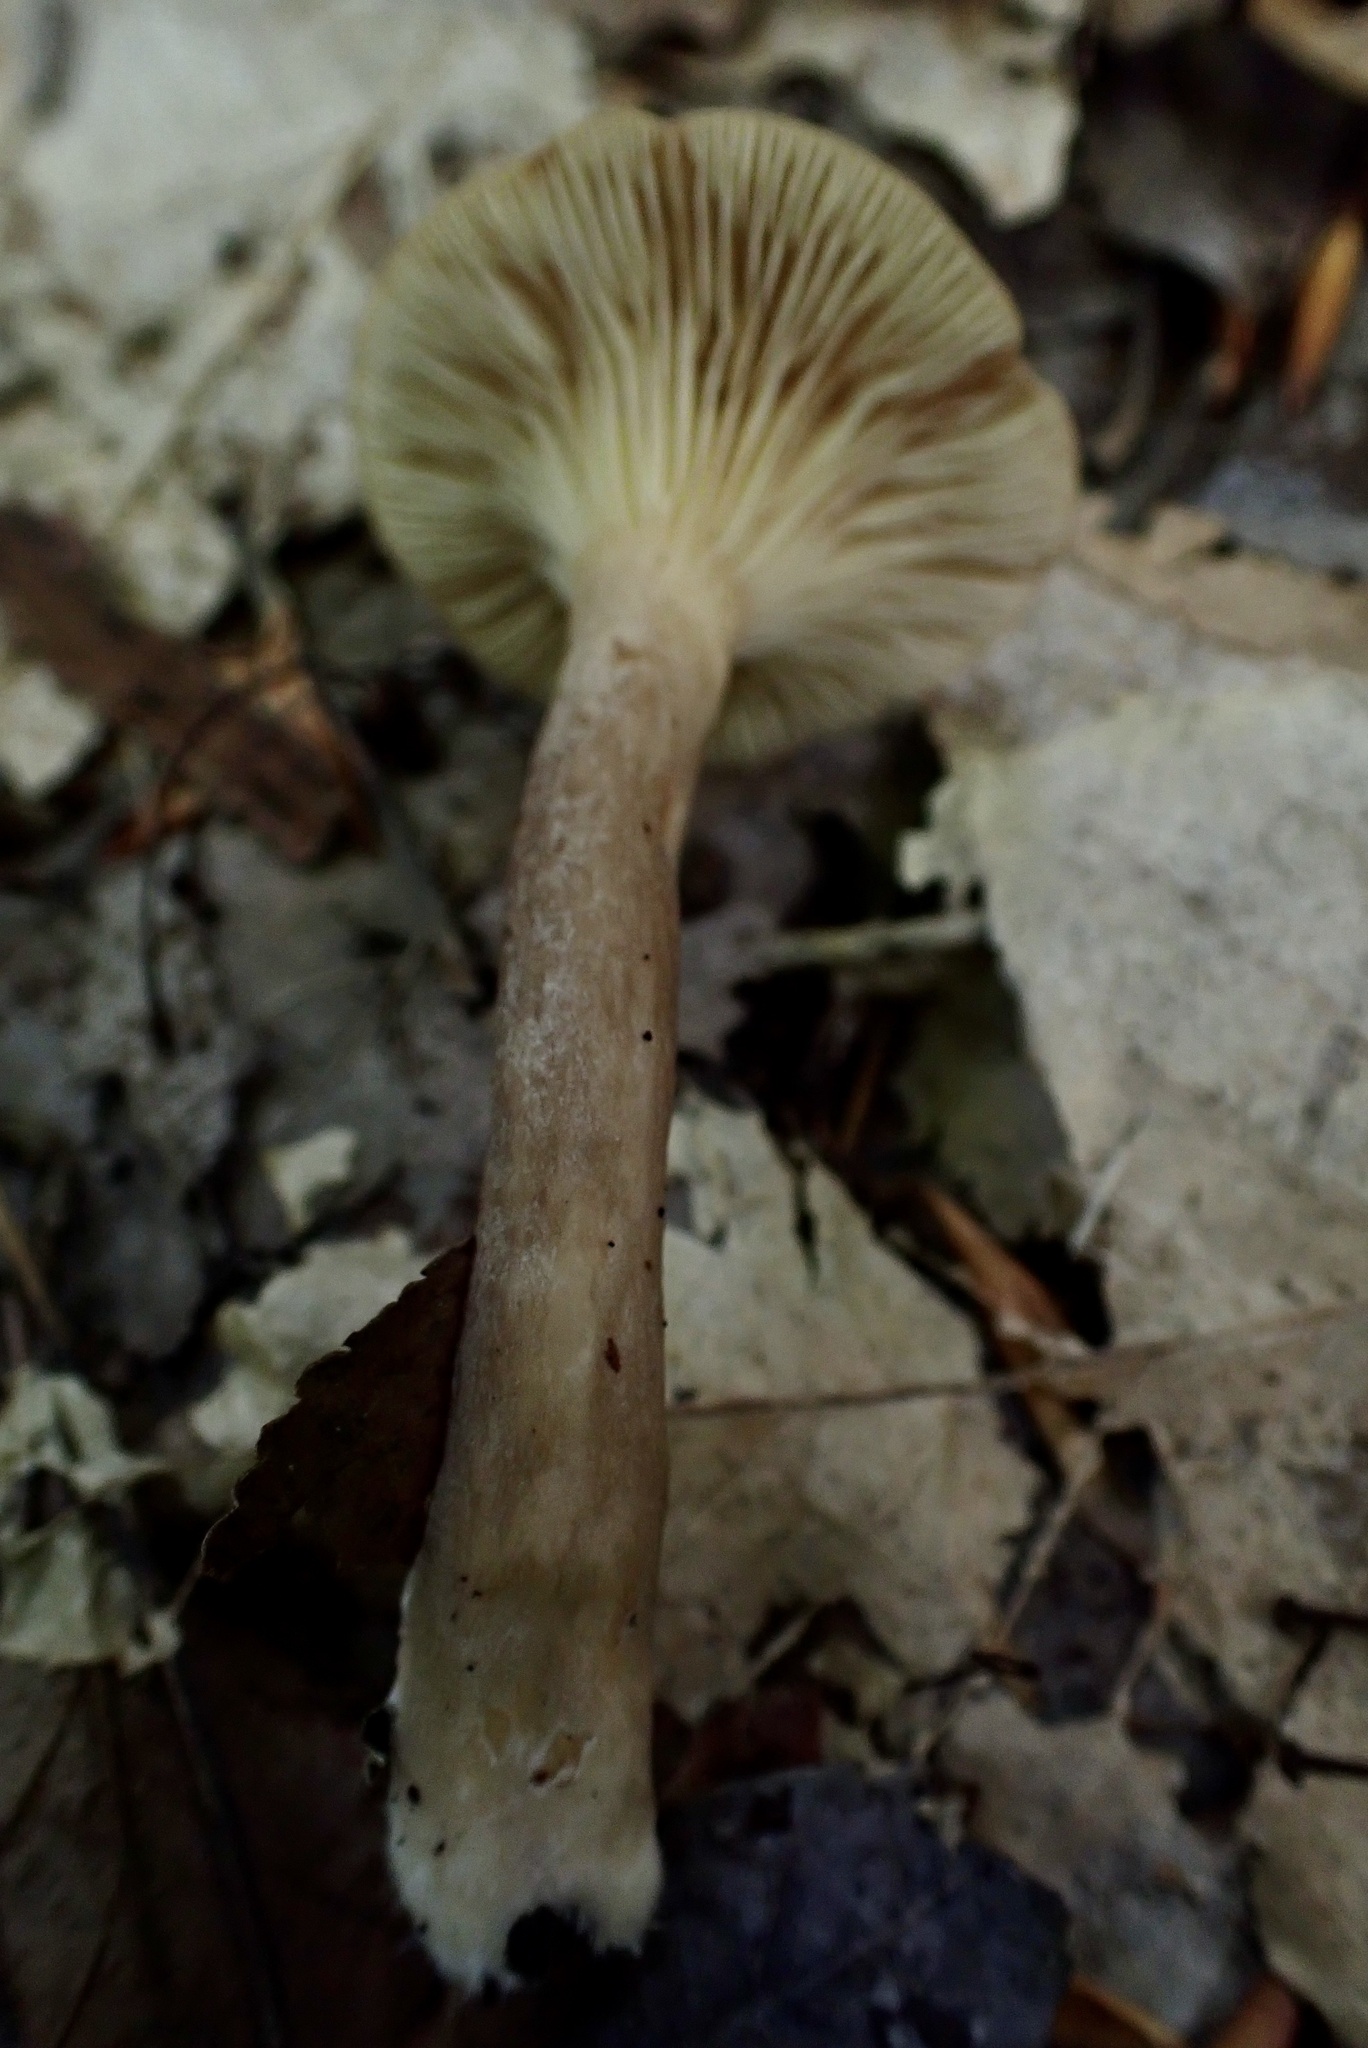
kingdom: Fungi
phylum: Basidiomycota
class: Agaricomycetes
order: Russulales
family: Russulaceae
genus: Lactarius
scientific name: Lactarius griseus
